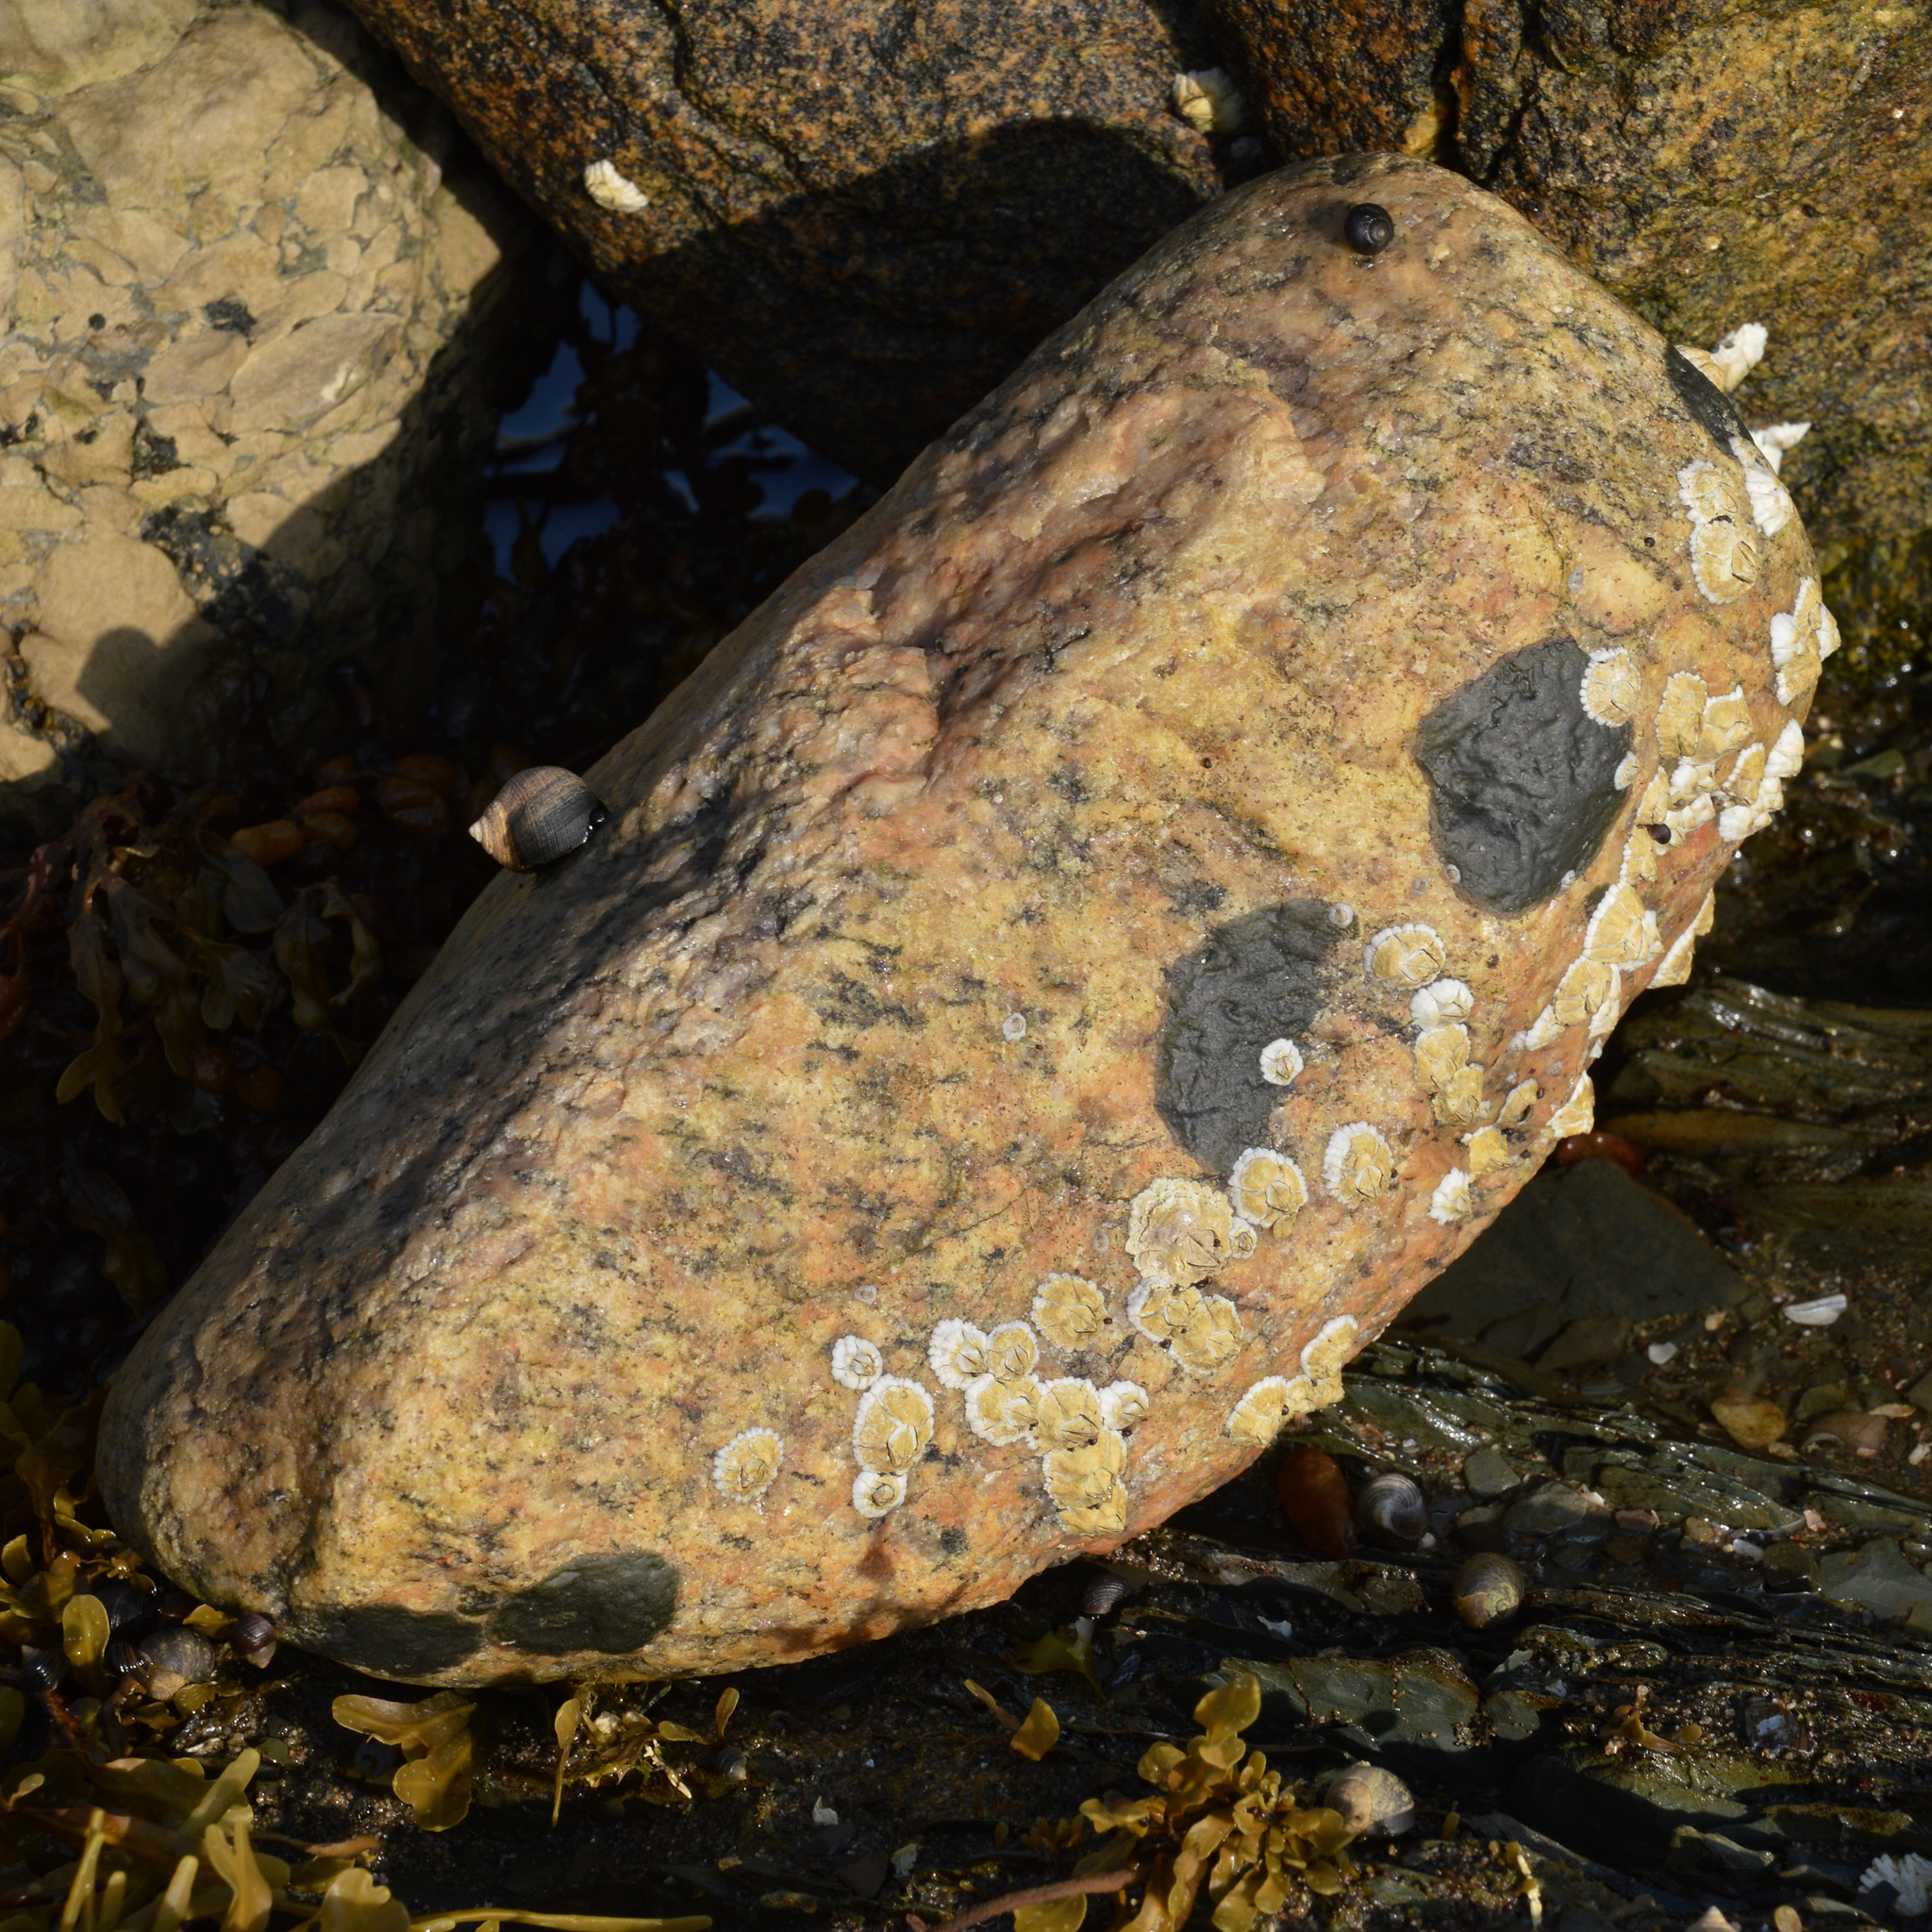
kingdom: Animalia
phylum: Arthropoda
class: Maxillopoda
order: Sessilia
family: Archaeobalanidae
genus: Semibalanus
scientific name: Semibalanus balanoides
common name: Acorn barnacle
